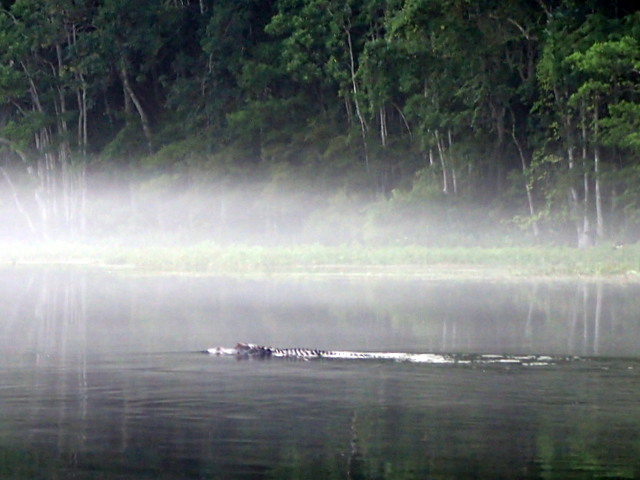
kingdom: Animalia
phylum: Chordata
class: Crocodylia
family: Alligatoridae
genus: Alligator
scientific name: Alligator mississippiensis
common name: American alligator
